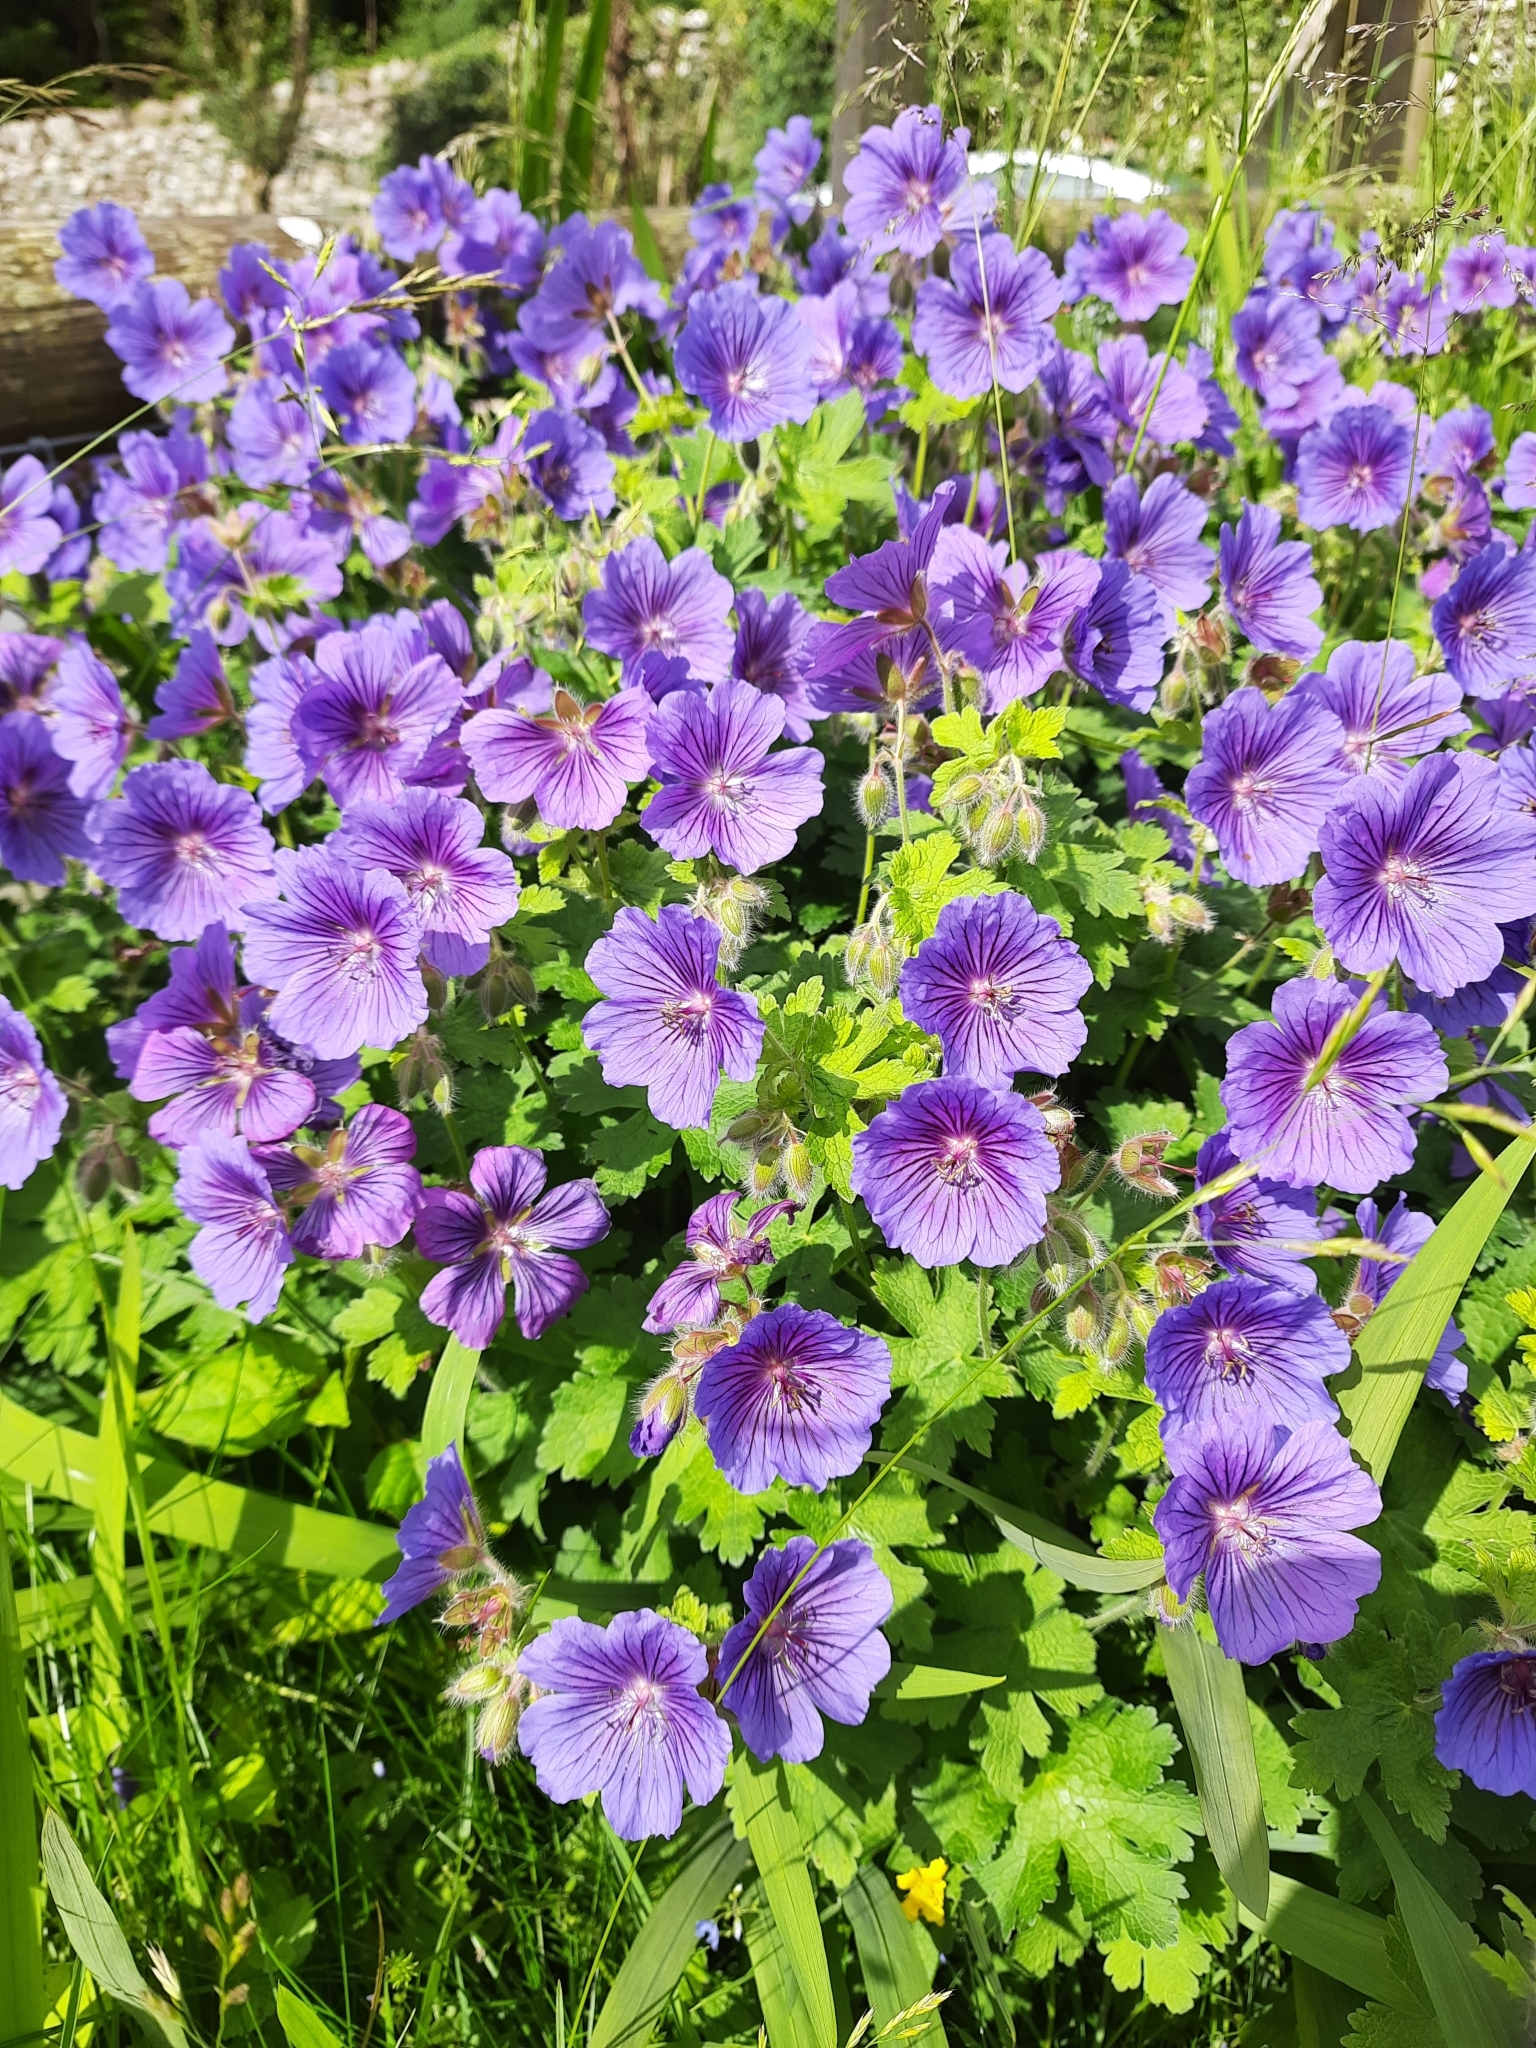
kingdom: Plantae
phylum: Tracheophyta
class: Magnoliopsida
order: Geraniales
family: Geraniaceae
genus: Geranium
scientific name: Geranium magnificum
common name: Purple crane's-bill
